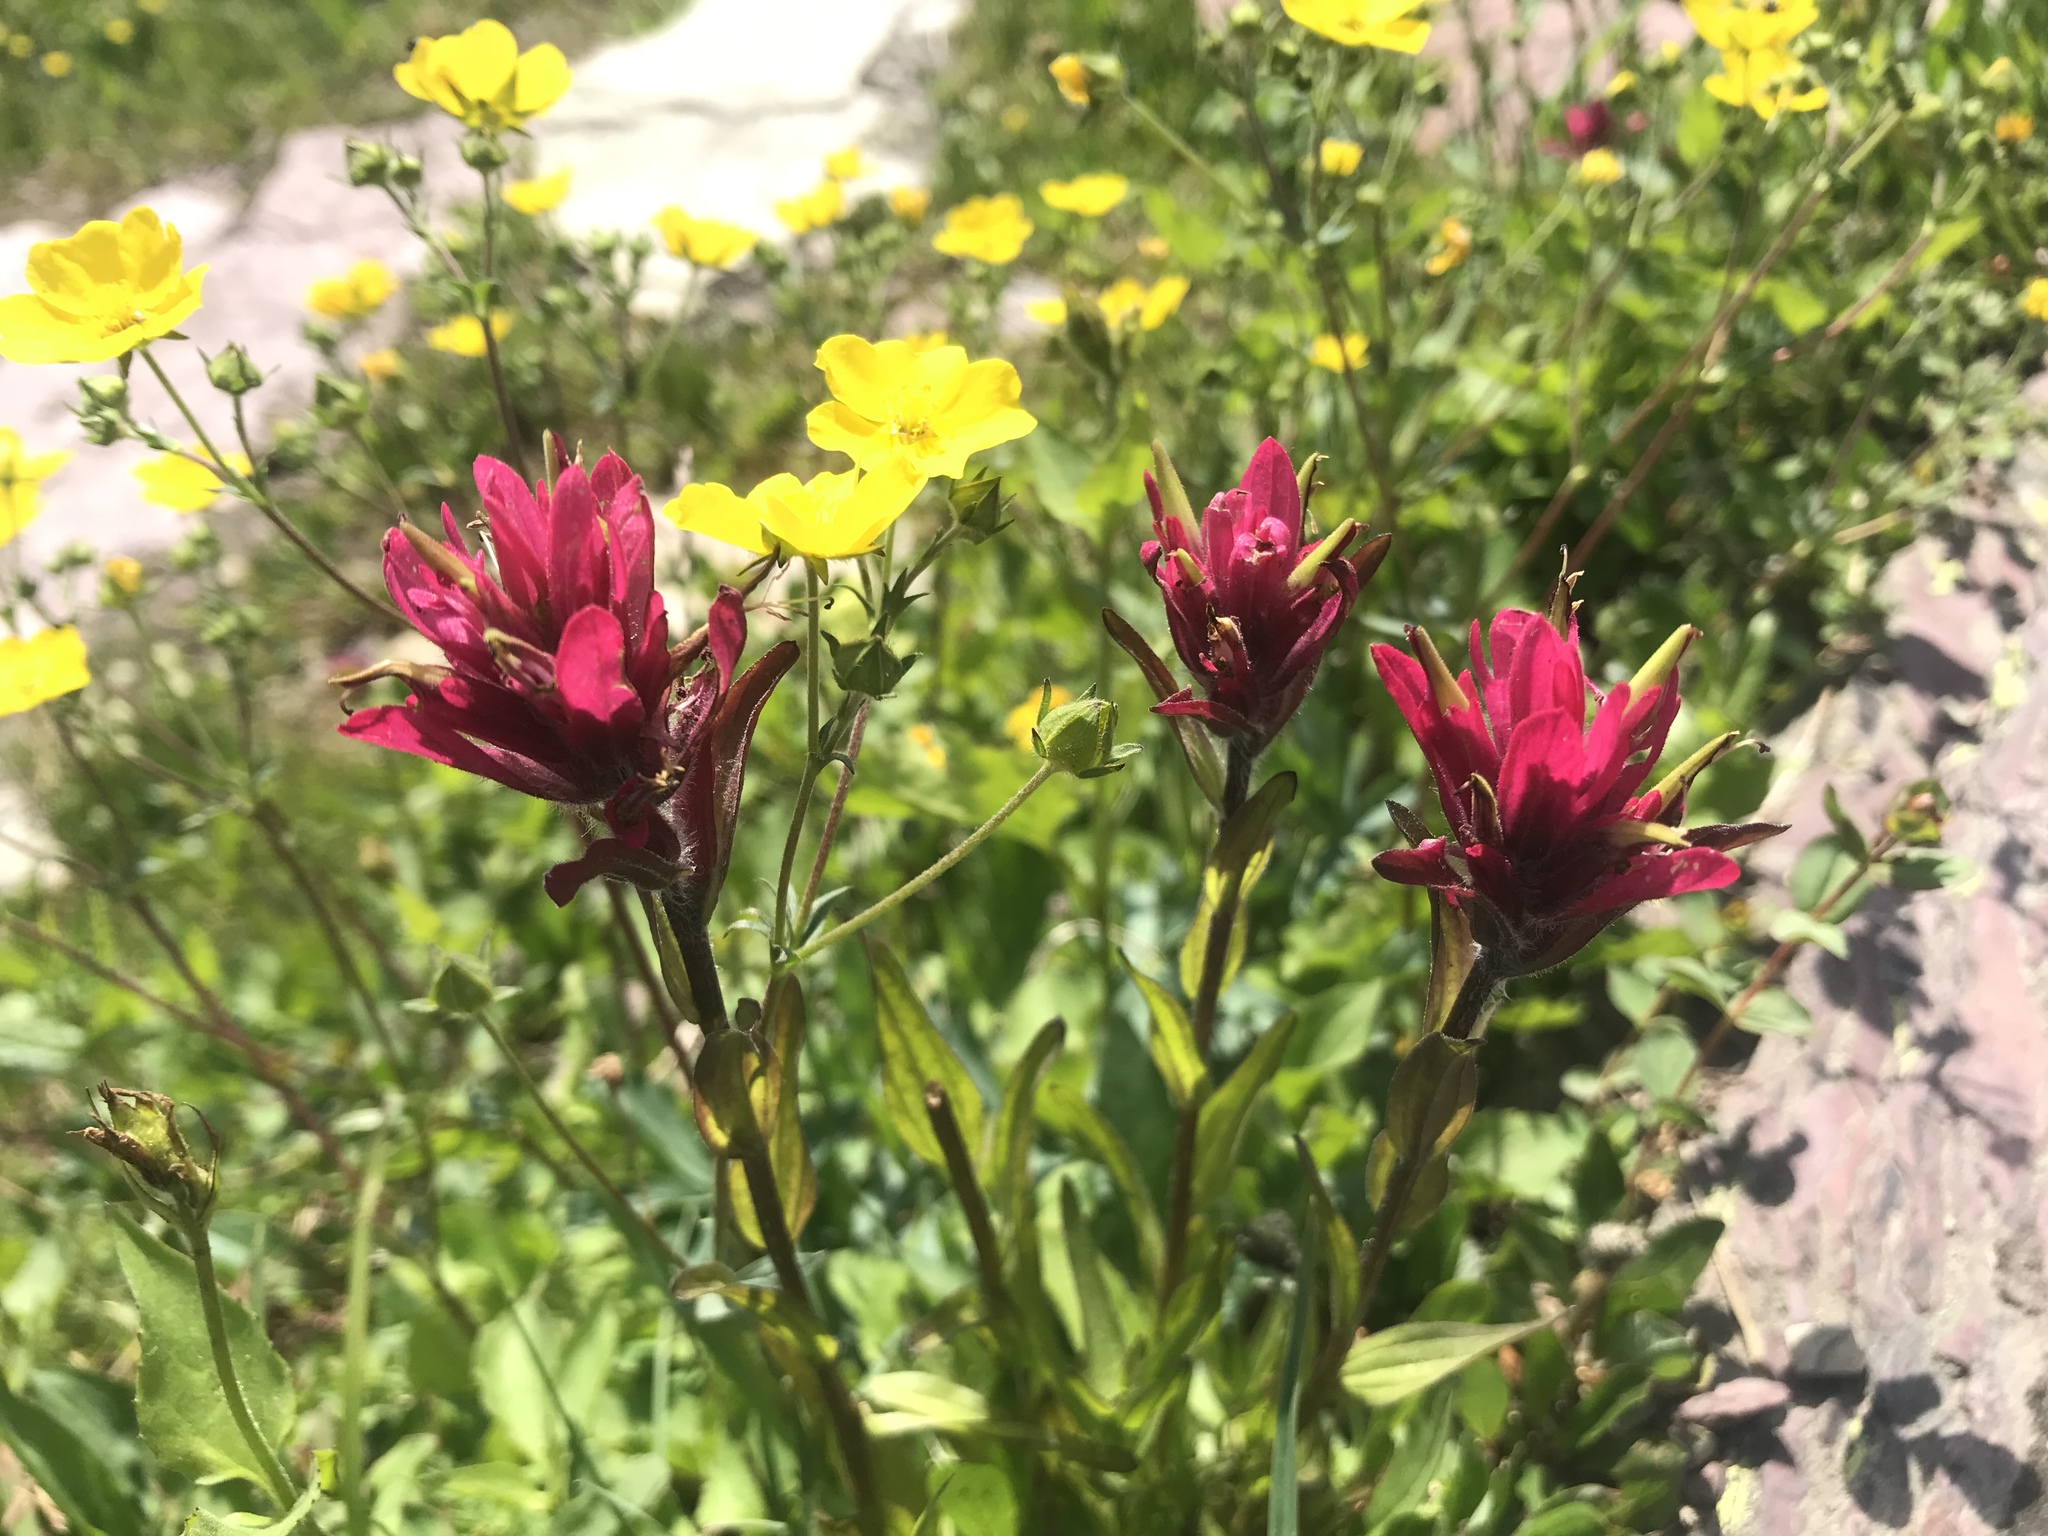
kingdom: Plantae
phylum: Tracheophyta
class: Magnoliopsida
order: Lamiales
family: Orobanchaceae
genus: Castilleja
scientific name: Castilleja rhexifolia
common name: Rocky mountain paintbrush
